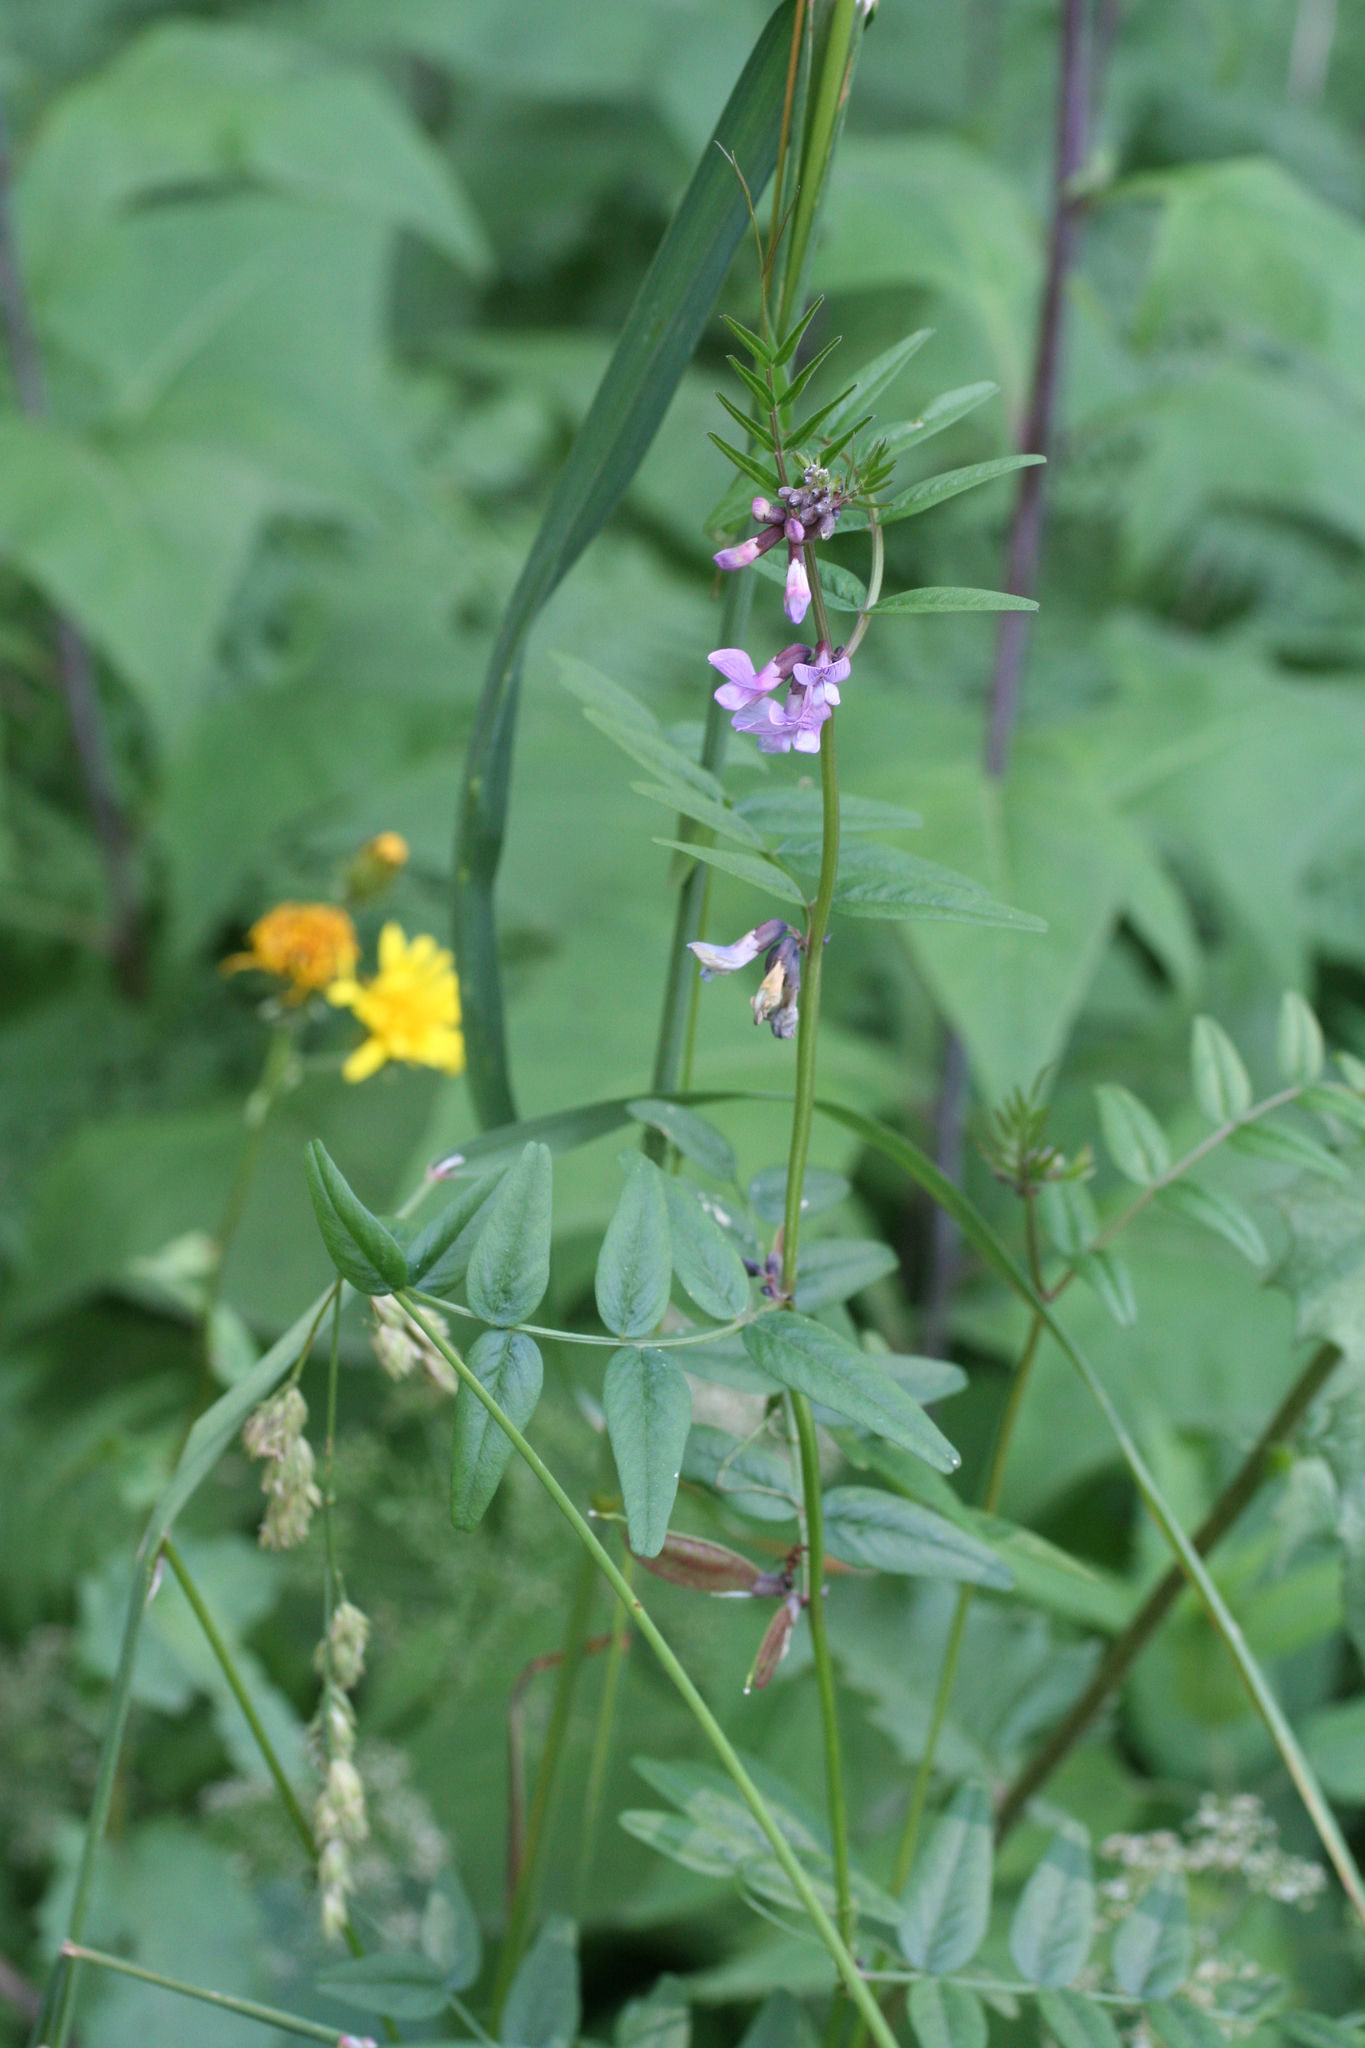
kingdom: Plantae
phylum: Tracheophyta
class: Magnoliopsida
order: Fabales
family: Fabaceae
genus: Vicia
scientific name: Vicia sepium
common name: Bush vetch
